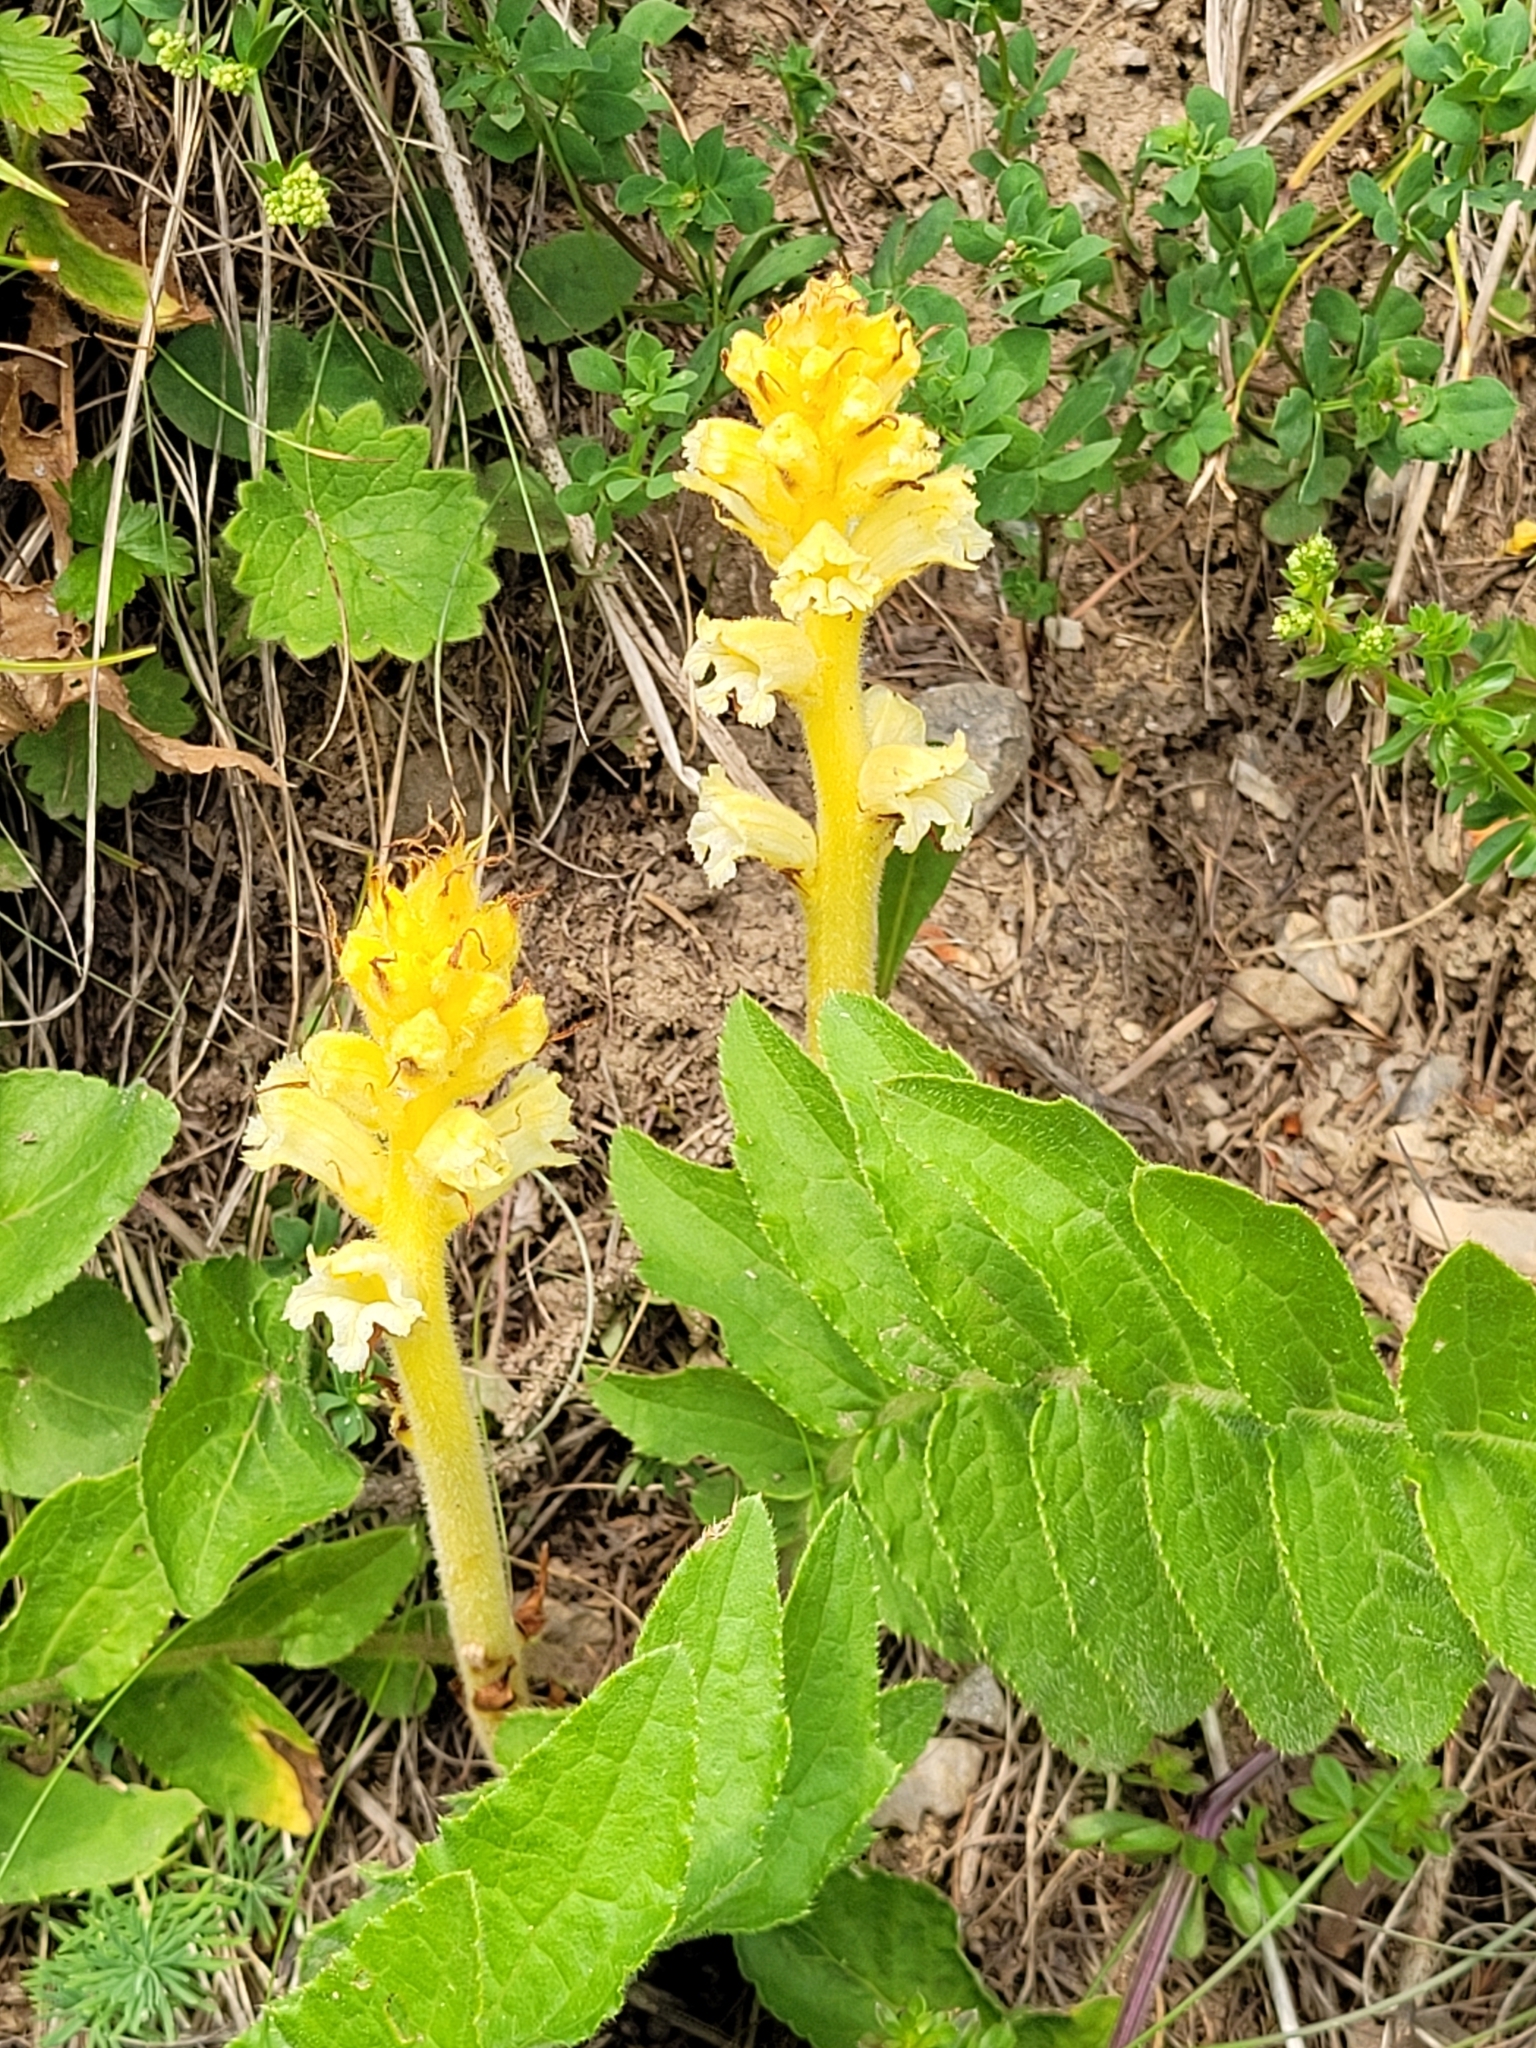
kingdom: Plantae
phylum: Tracheophyta
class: Magnoliopsida
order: Lamiales
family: Orobanchaceae
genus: Orobanche
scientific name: Orobanche flava
